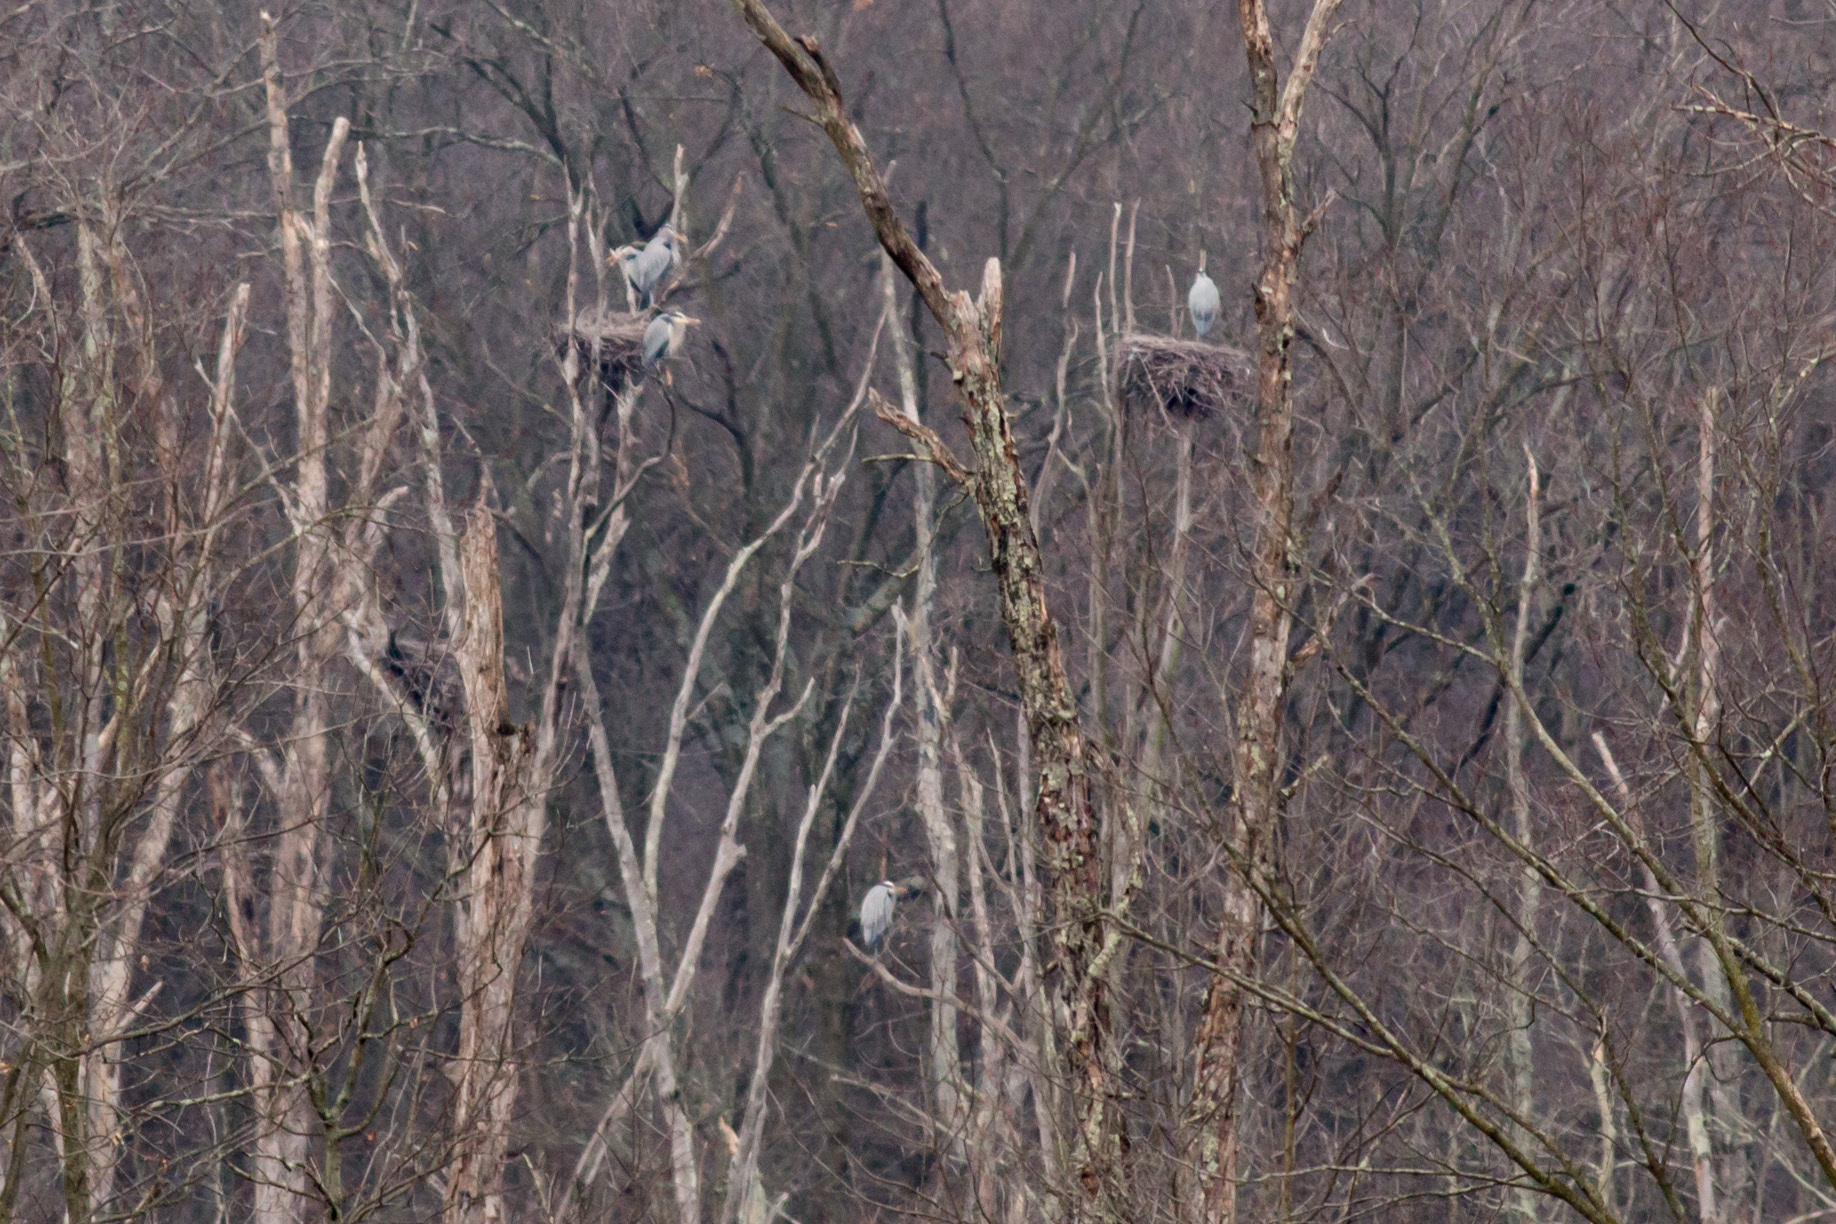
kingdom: Animalia
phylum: Chordata
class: Aves
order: Pelecaniformes
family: Ardeidae
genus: Ardea
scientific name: Ardea herodias
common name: Great blue heron
